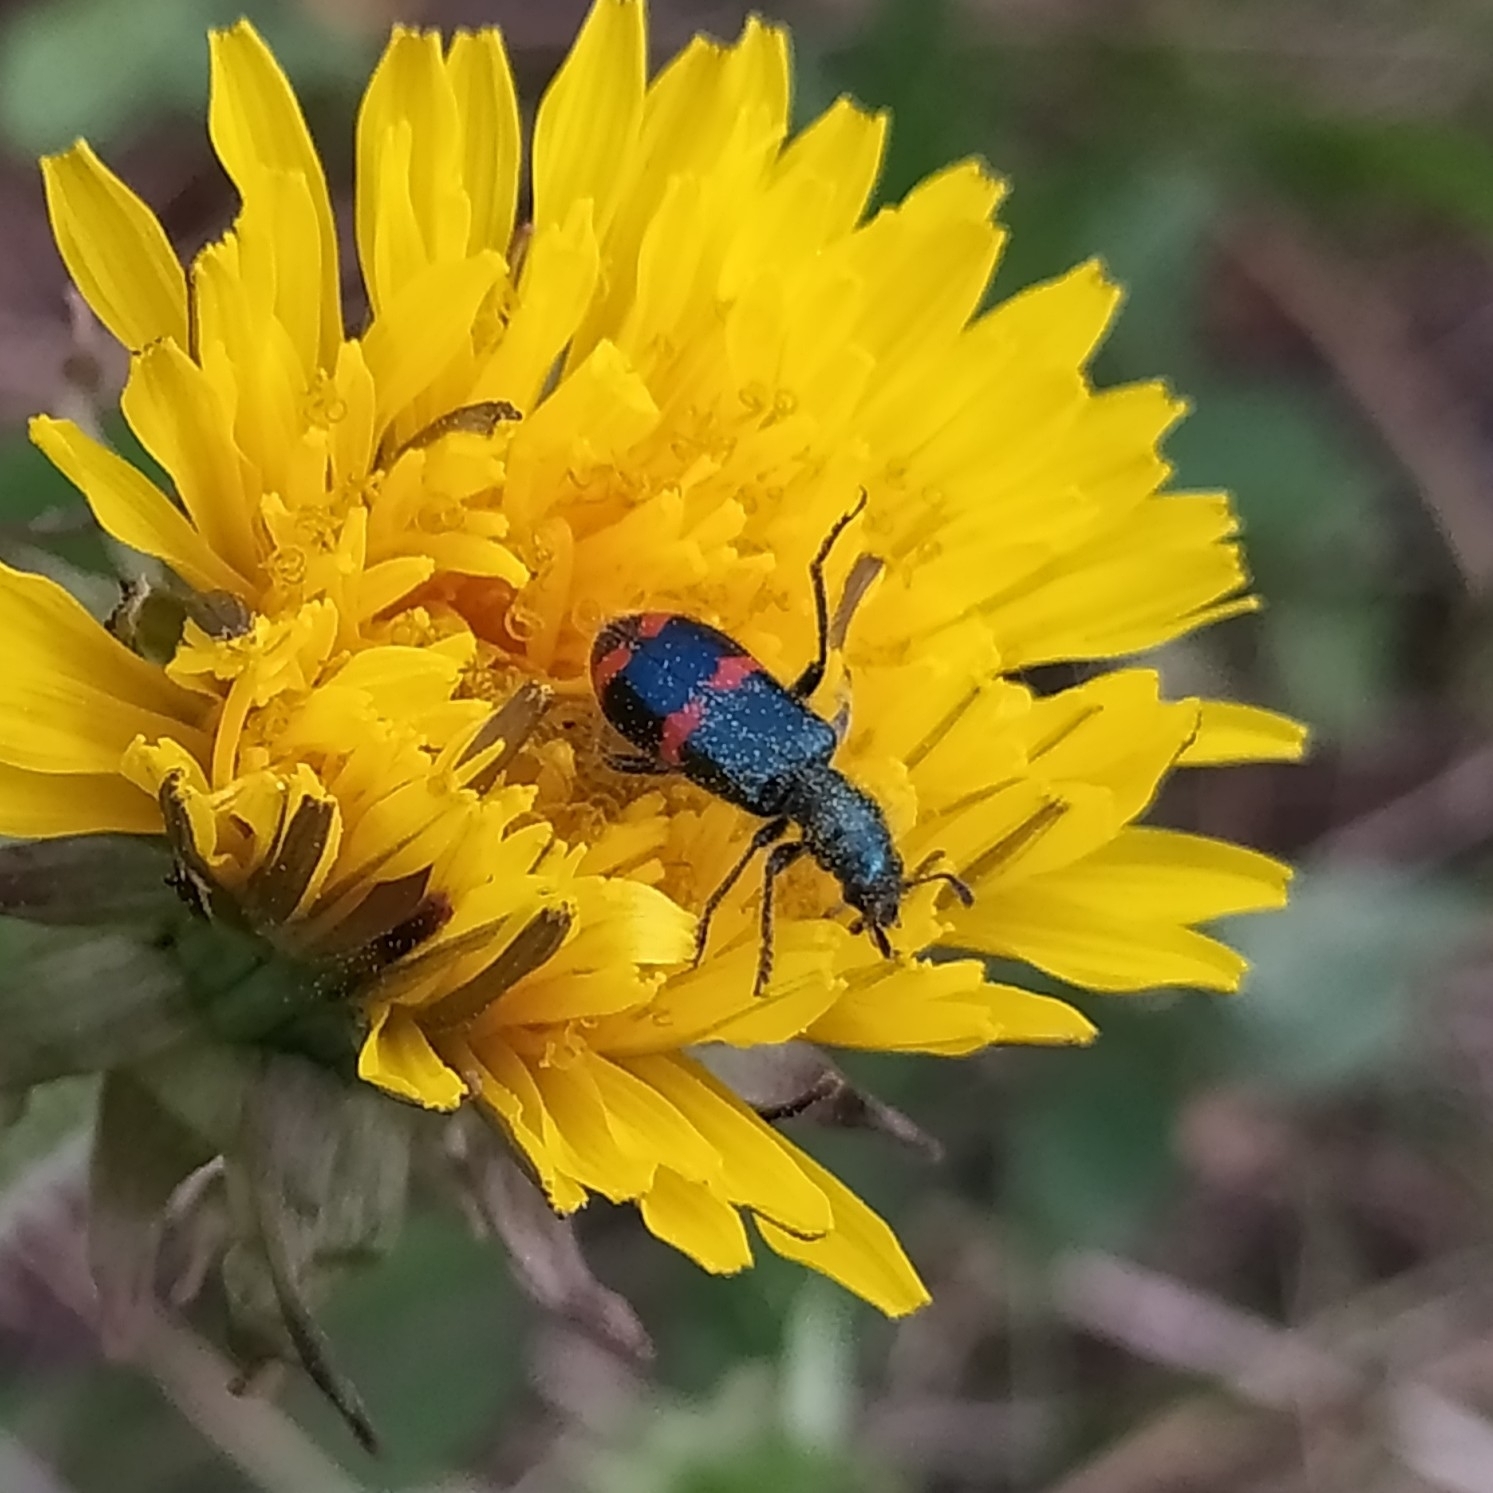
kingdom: Animalia
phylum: Arthropoda
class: Insecta
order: Coleoptera
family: Cleridae
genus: Trichodes
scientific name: Trichodes
